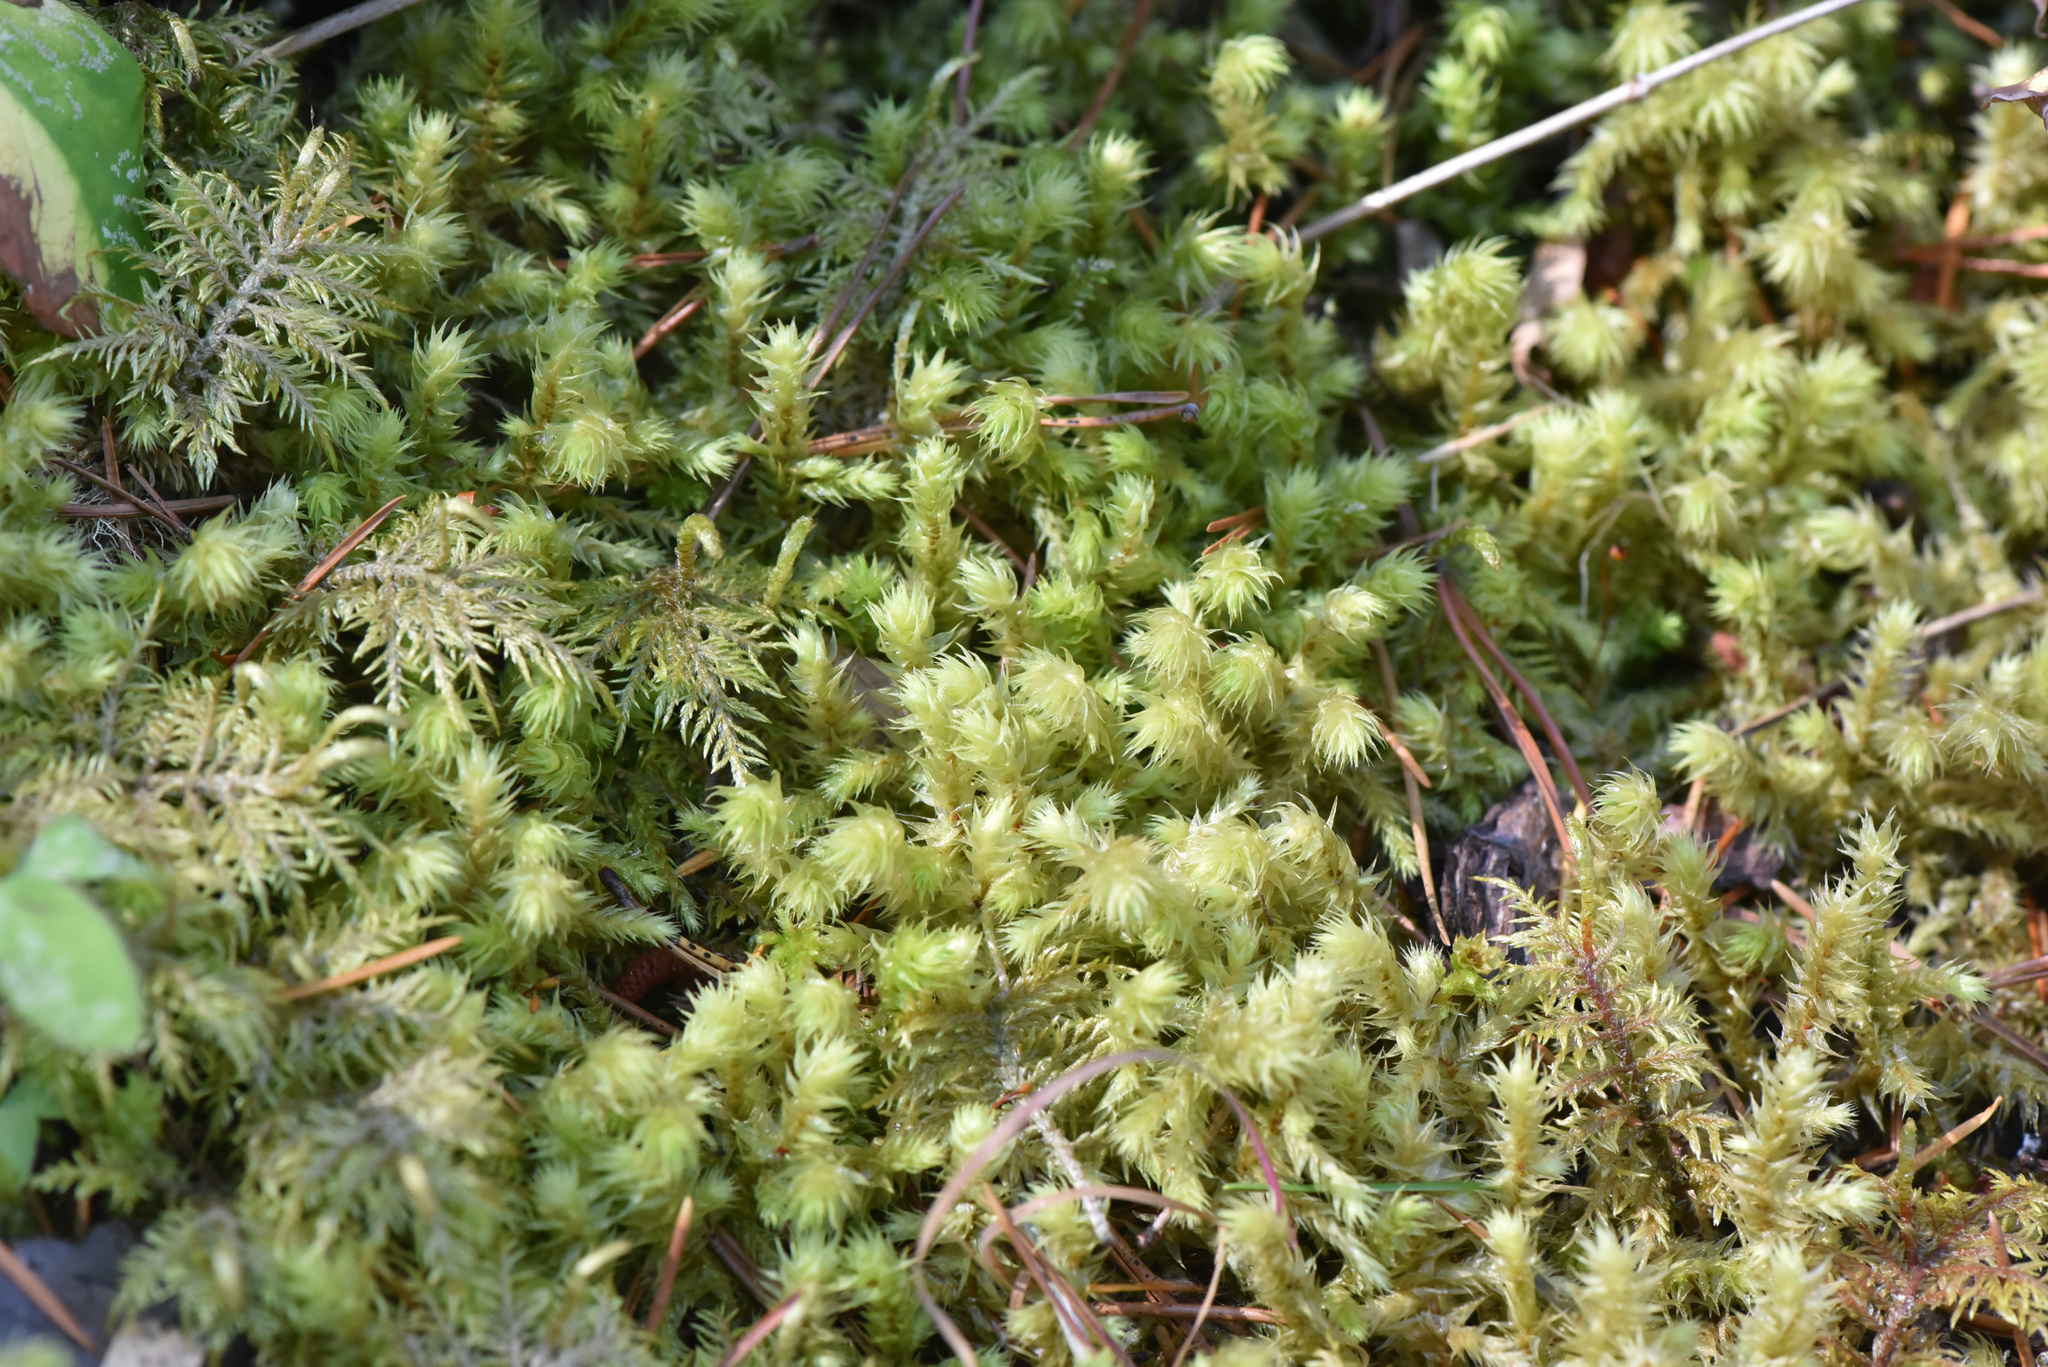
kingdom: Plantae
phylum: Bryophyta
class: Bryopsida
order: Hypnales
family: Hylocomiaceae
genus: Hylocomiadelphus
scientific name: Hylocomiadelphus triquetrus
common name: Rough goose neck moss
